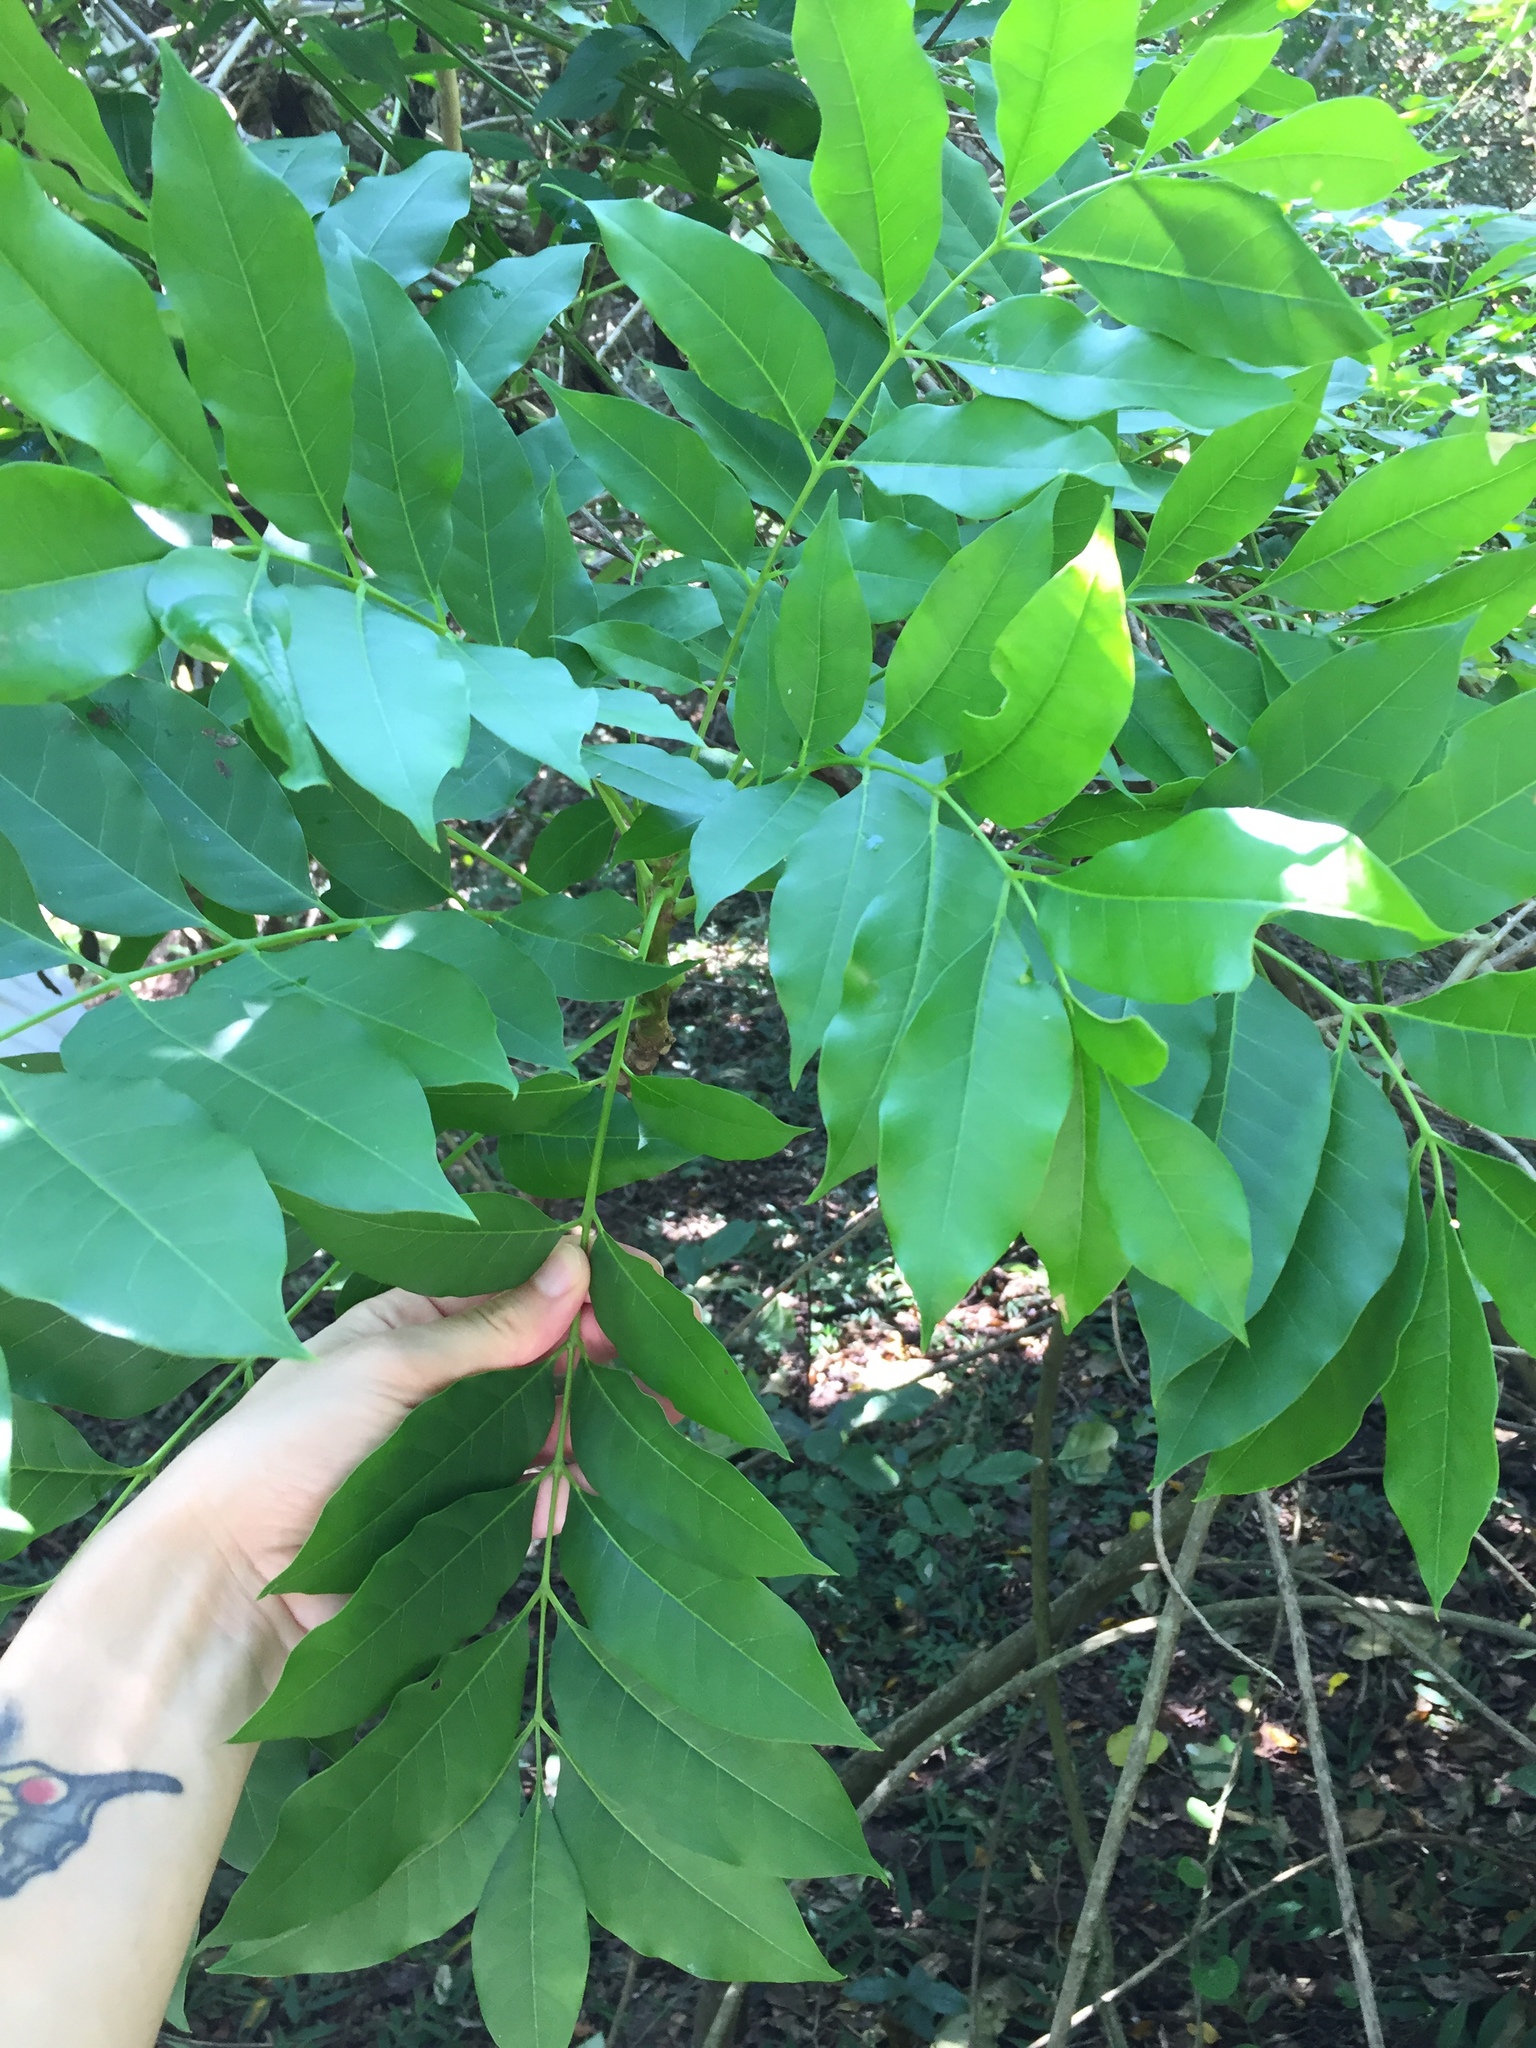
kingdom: Plantae
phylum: Tracheophyta
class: Magnoliopsida
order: Sapindales
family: Meliaceae
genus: Ekebergia
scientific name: Ekebergia capensis
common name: Cape-ash
